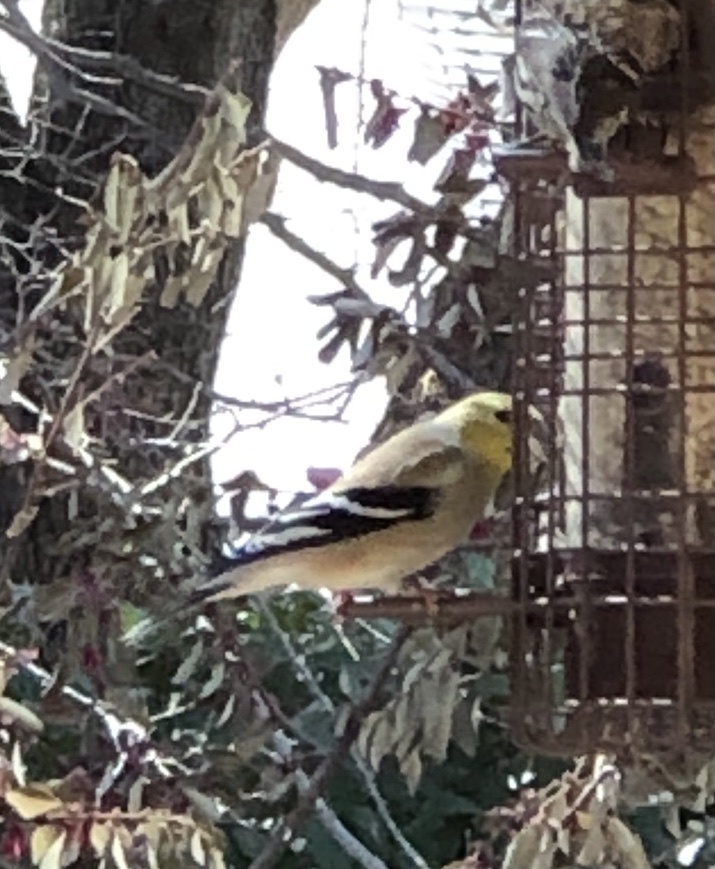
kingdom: Animalia
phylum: Chordata
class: Aves
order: Passeriformes
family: Fringillidae
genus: Spinus
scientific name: Spinus tristis
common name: American goldfinch
